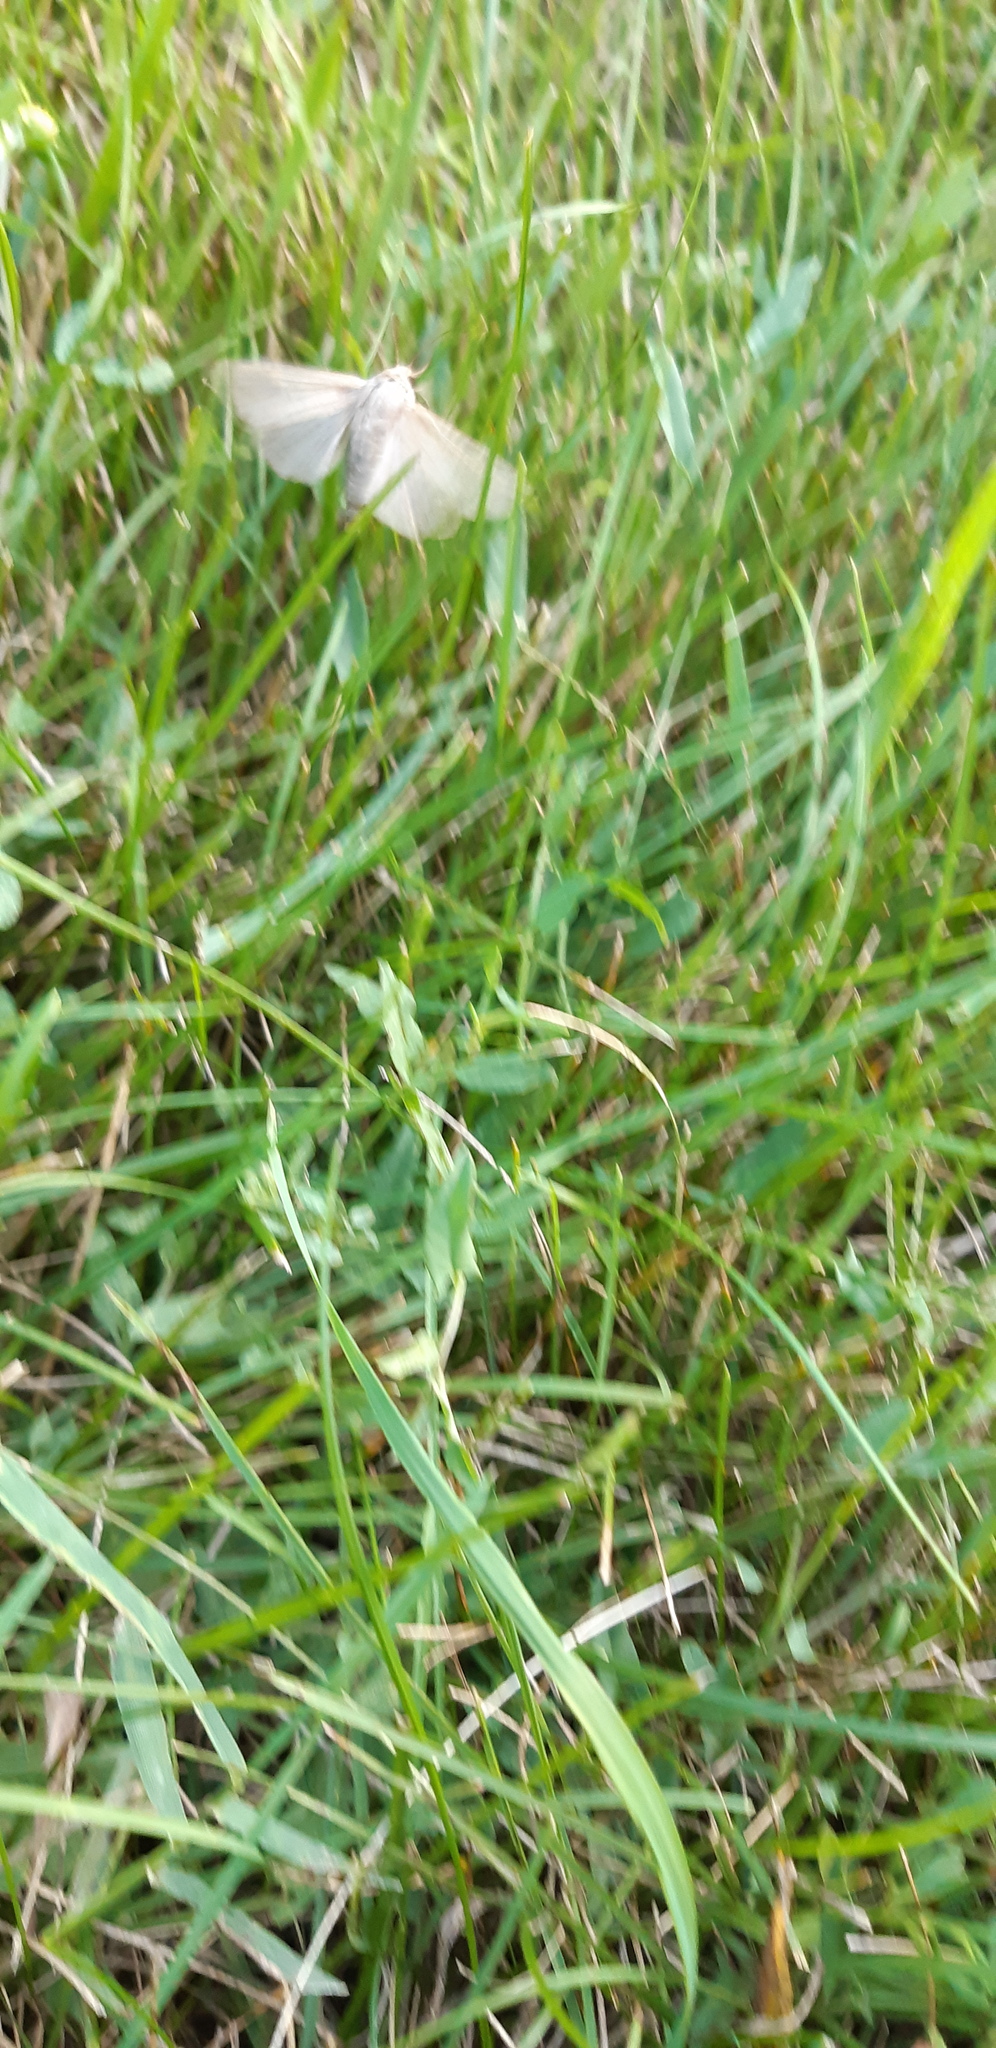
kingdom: Animalia
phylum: Arthropoda
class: Insecta
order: Lepidoptera
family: Erebidae
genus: Euchaetes
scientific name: Euchaetes egle
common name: Milkweed tussock moth
